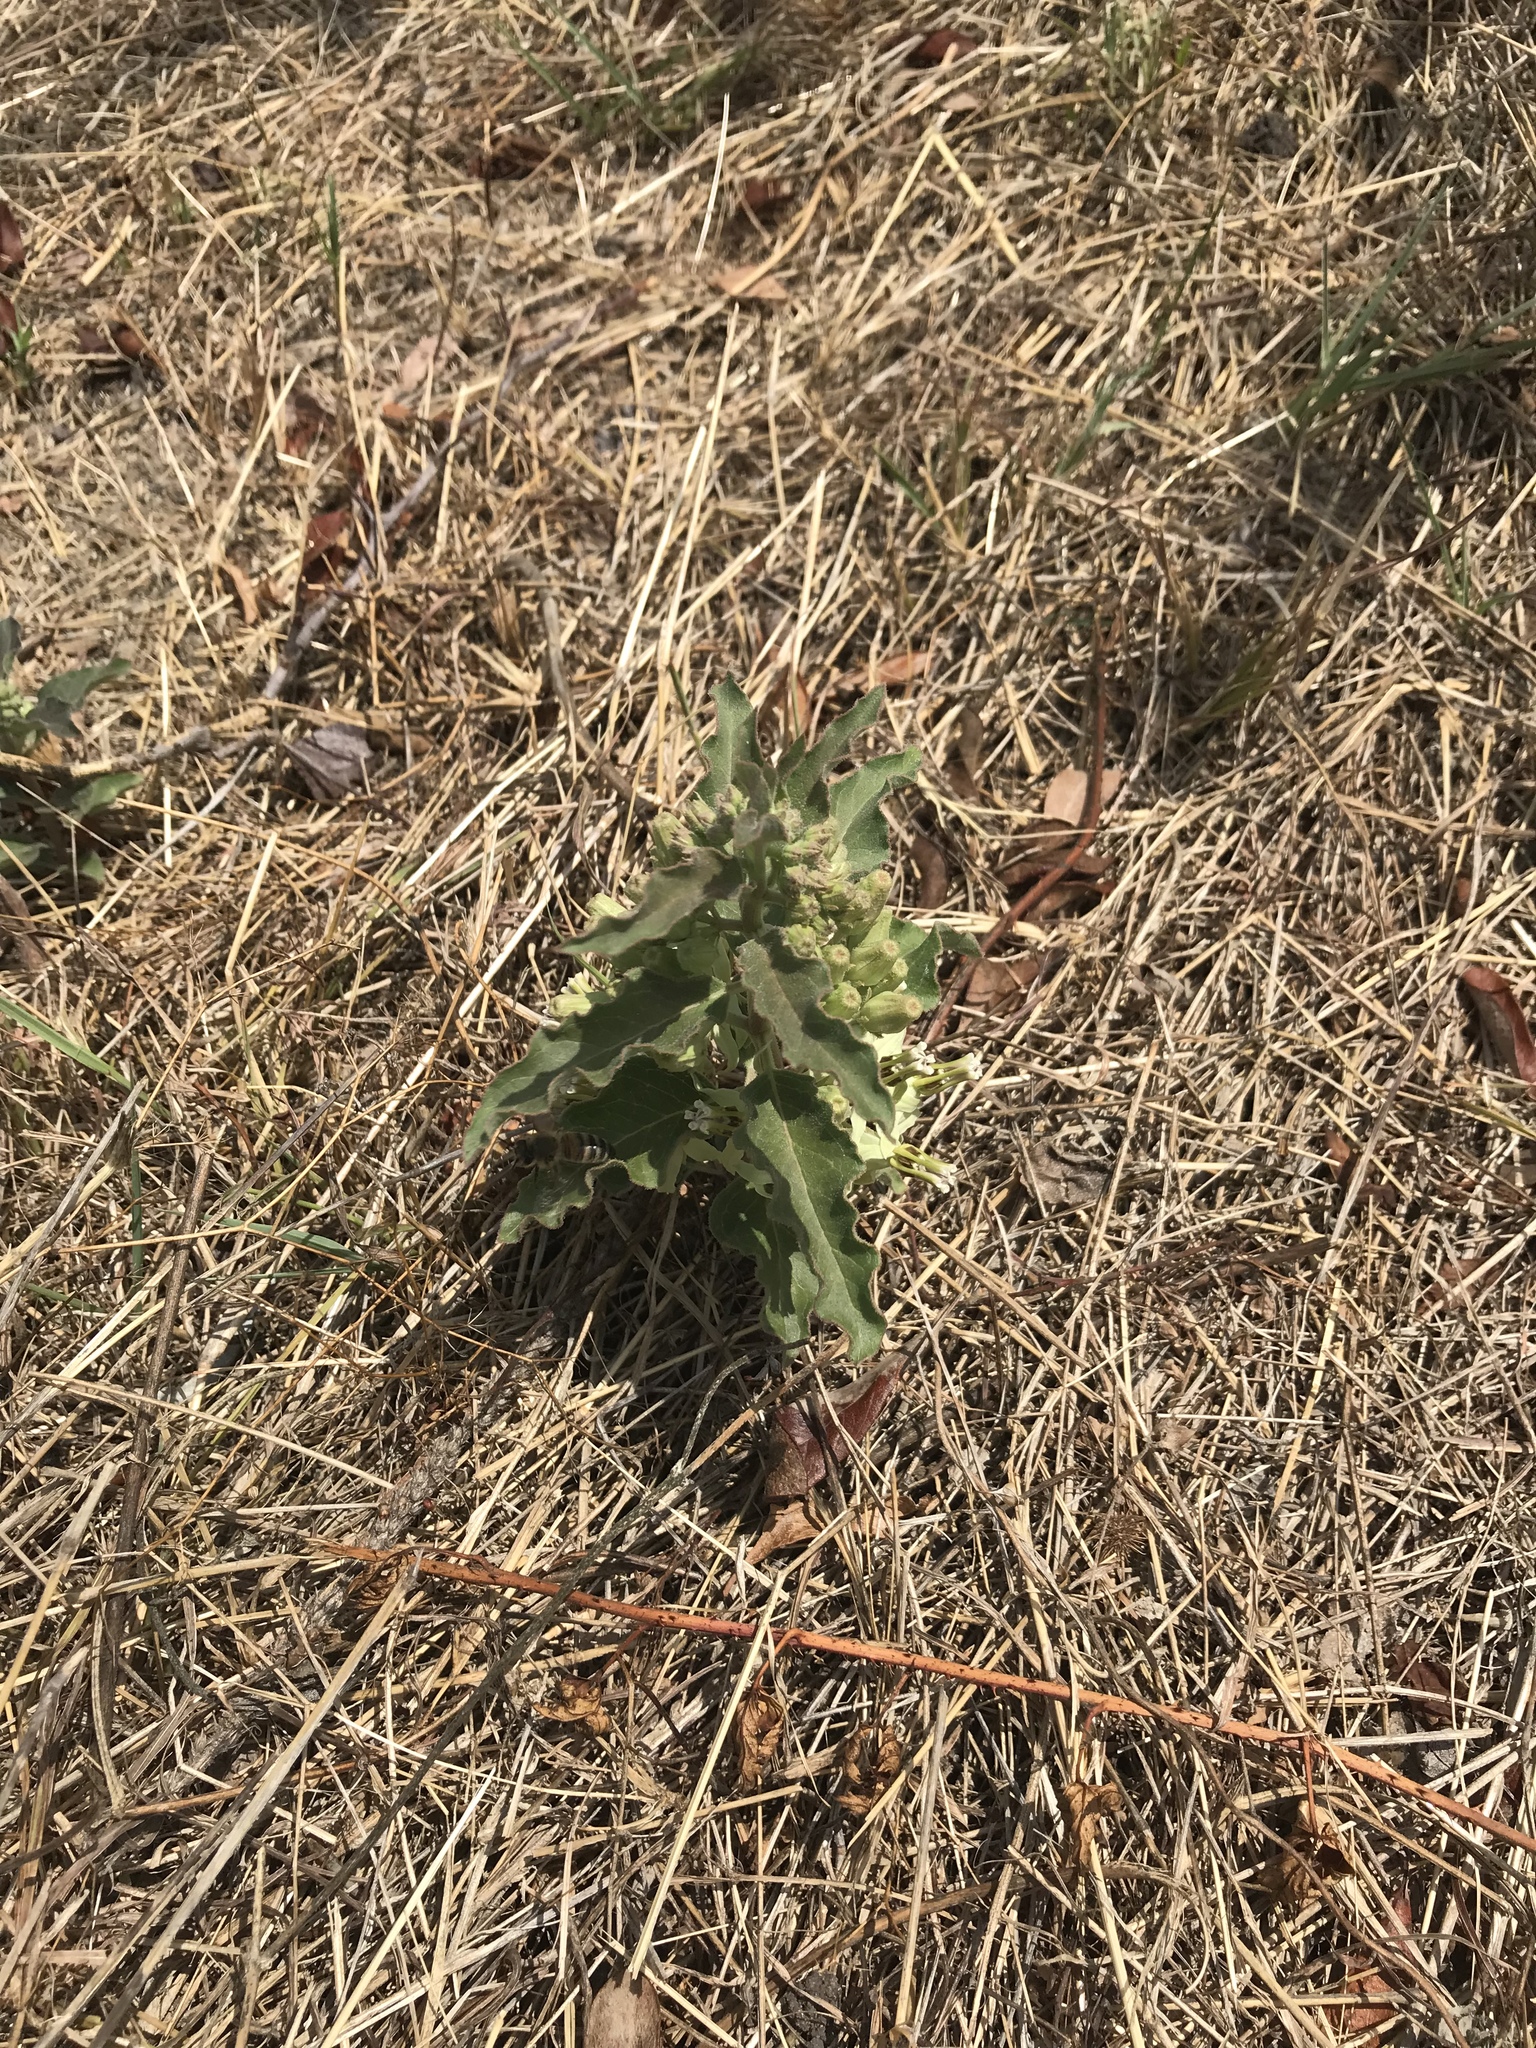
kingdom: Plantae
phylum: Tracheophyta
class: Magnoliopsida
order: Gentianales
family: Apocynaceae
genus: Asclepias
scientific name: Asclepias oenotheroides
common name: Zizotes milkweed
